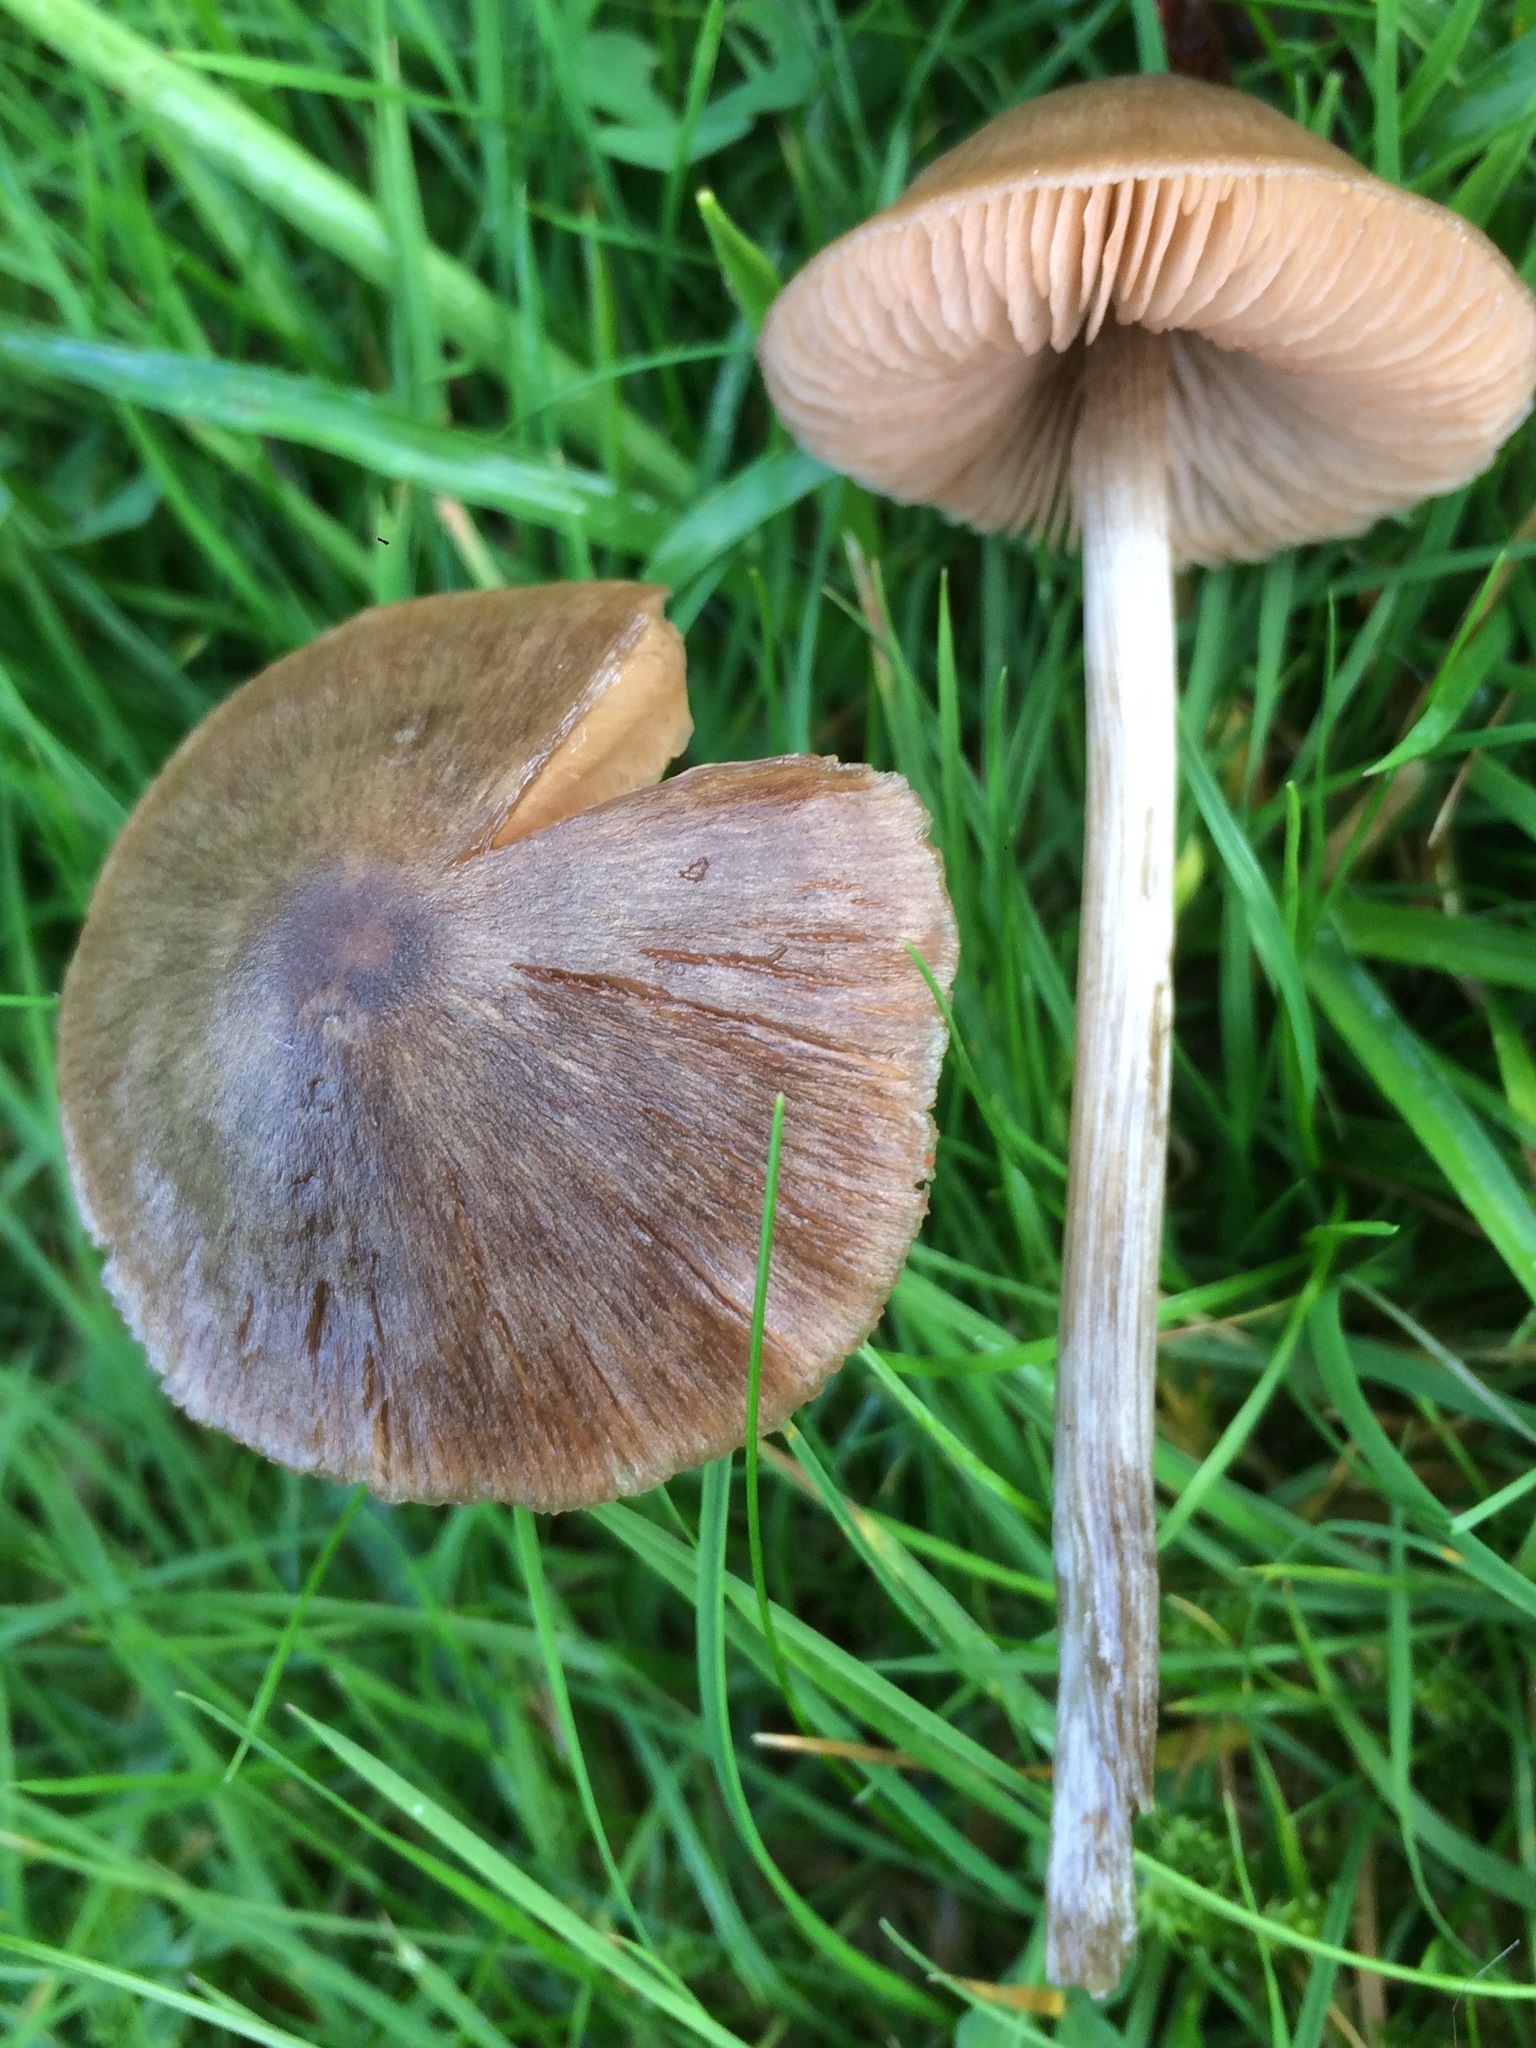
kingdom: Fungi
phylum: Basidiomycota
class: Agaricomycetes
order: Agaricales
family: Entolomataceae
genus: Entoloma
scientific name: Entoloma conferendum
